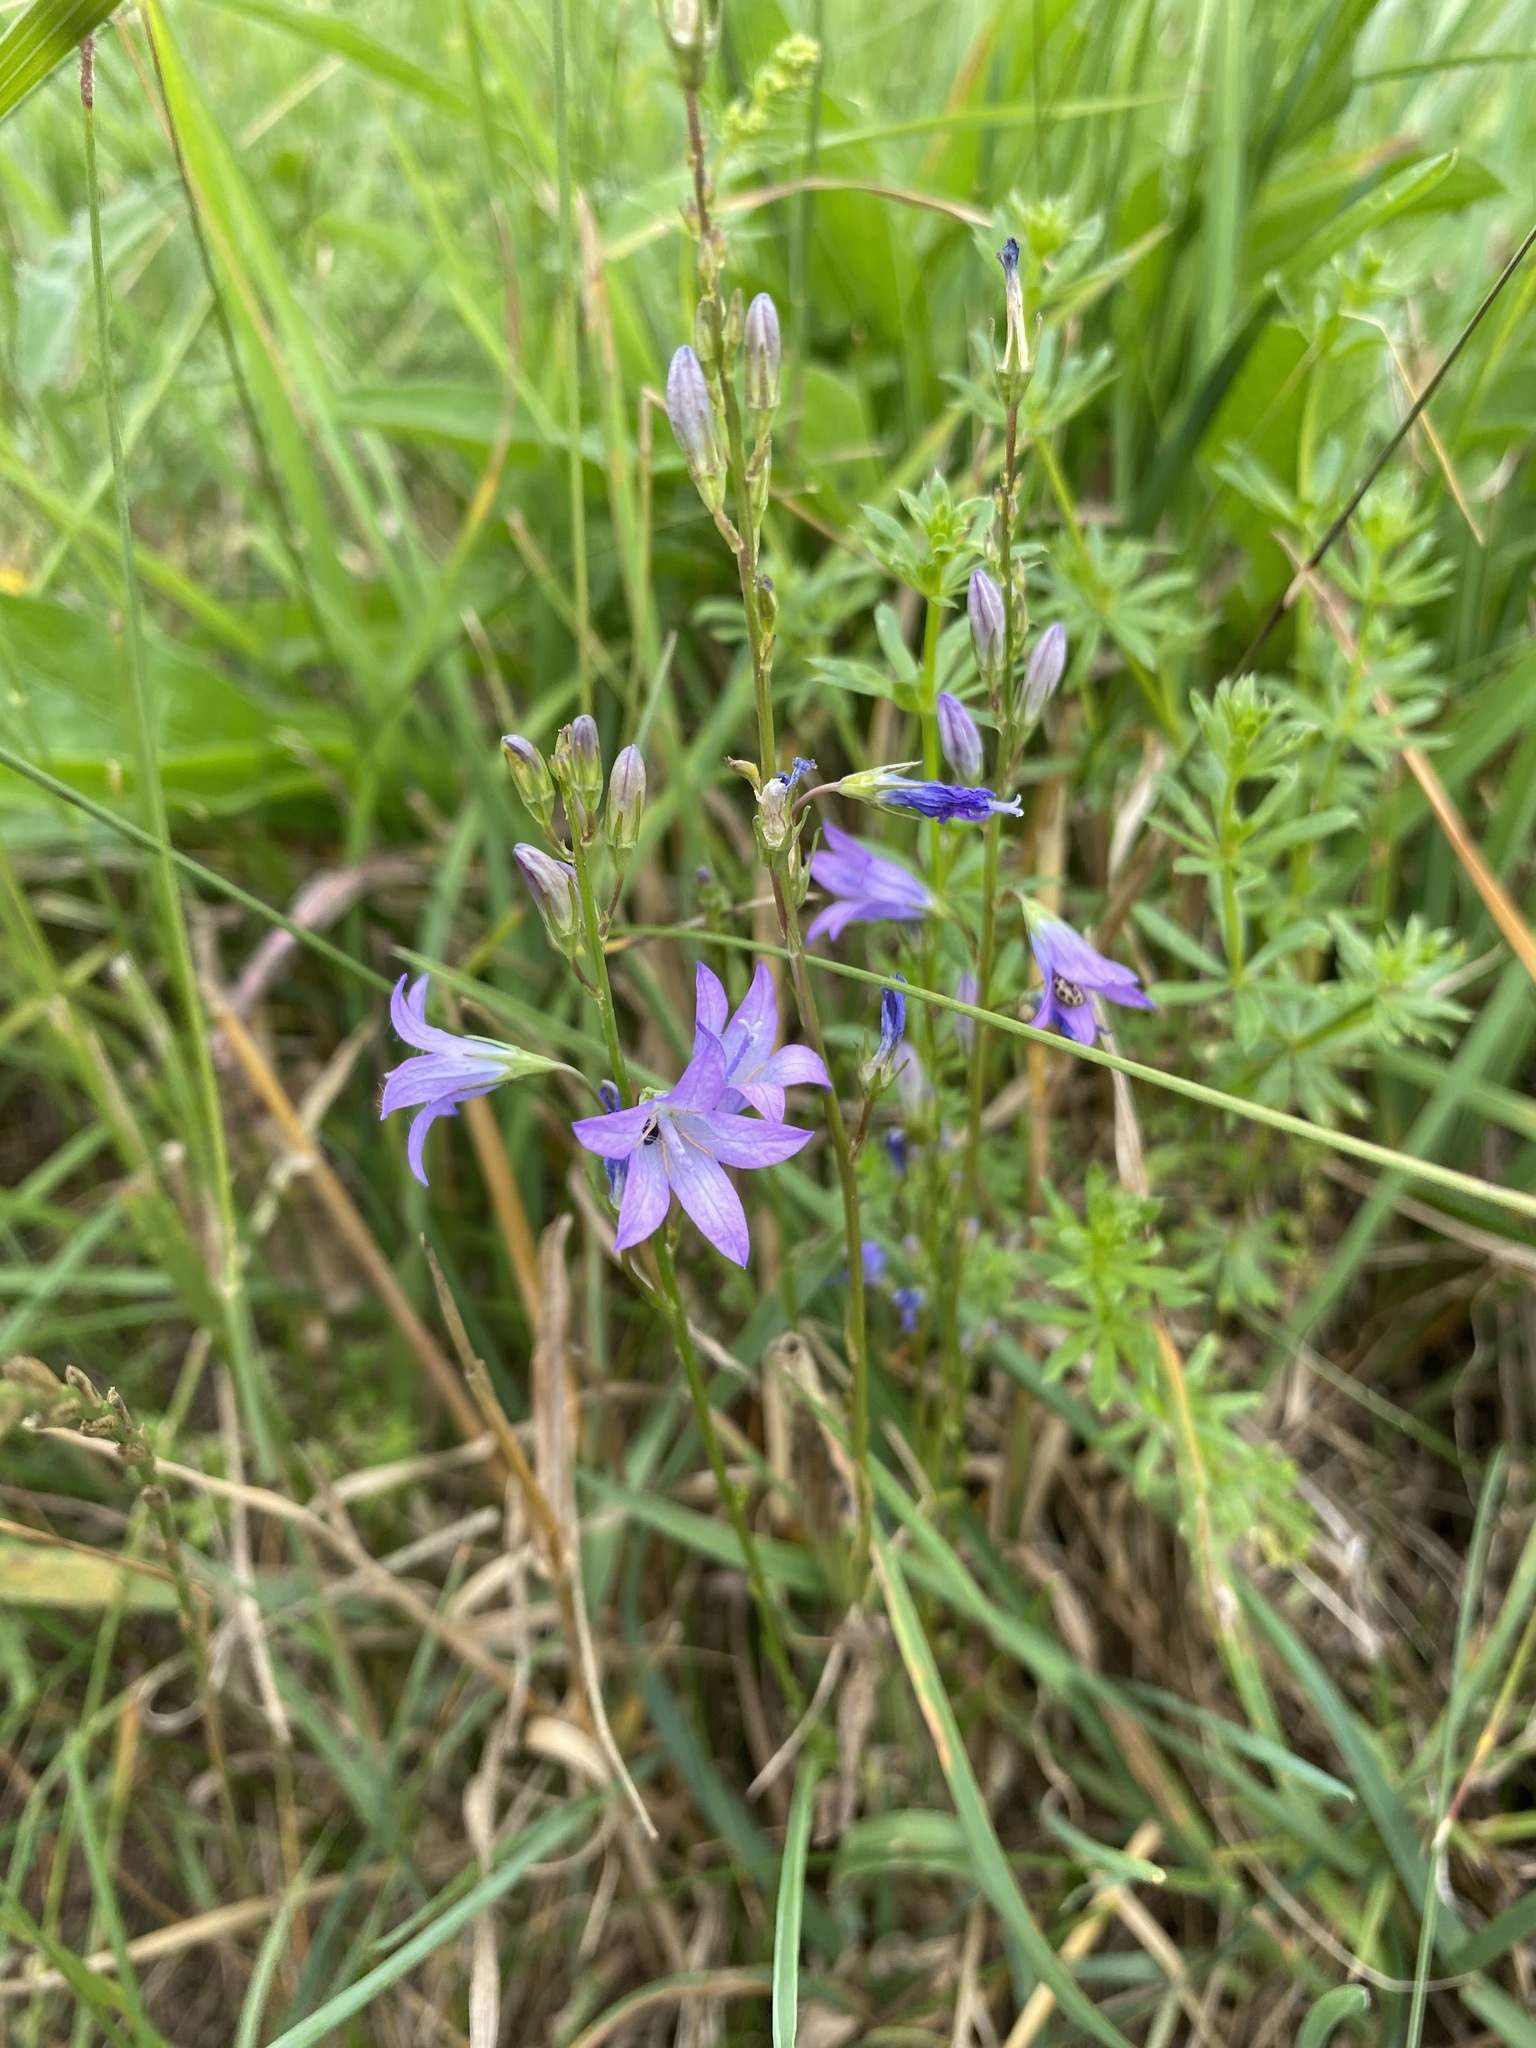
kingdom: Plantae
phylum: Tracheophyta
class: Magnoliopsida
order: Asterales
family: Campanulaceae
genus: Campanula
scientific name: Campanula rapunculus
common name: Rampion bellflower
